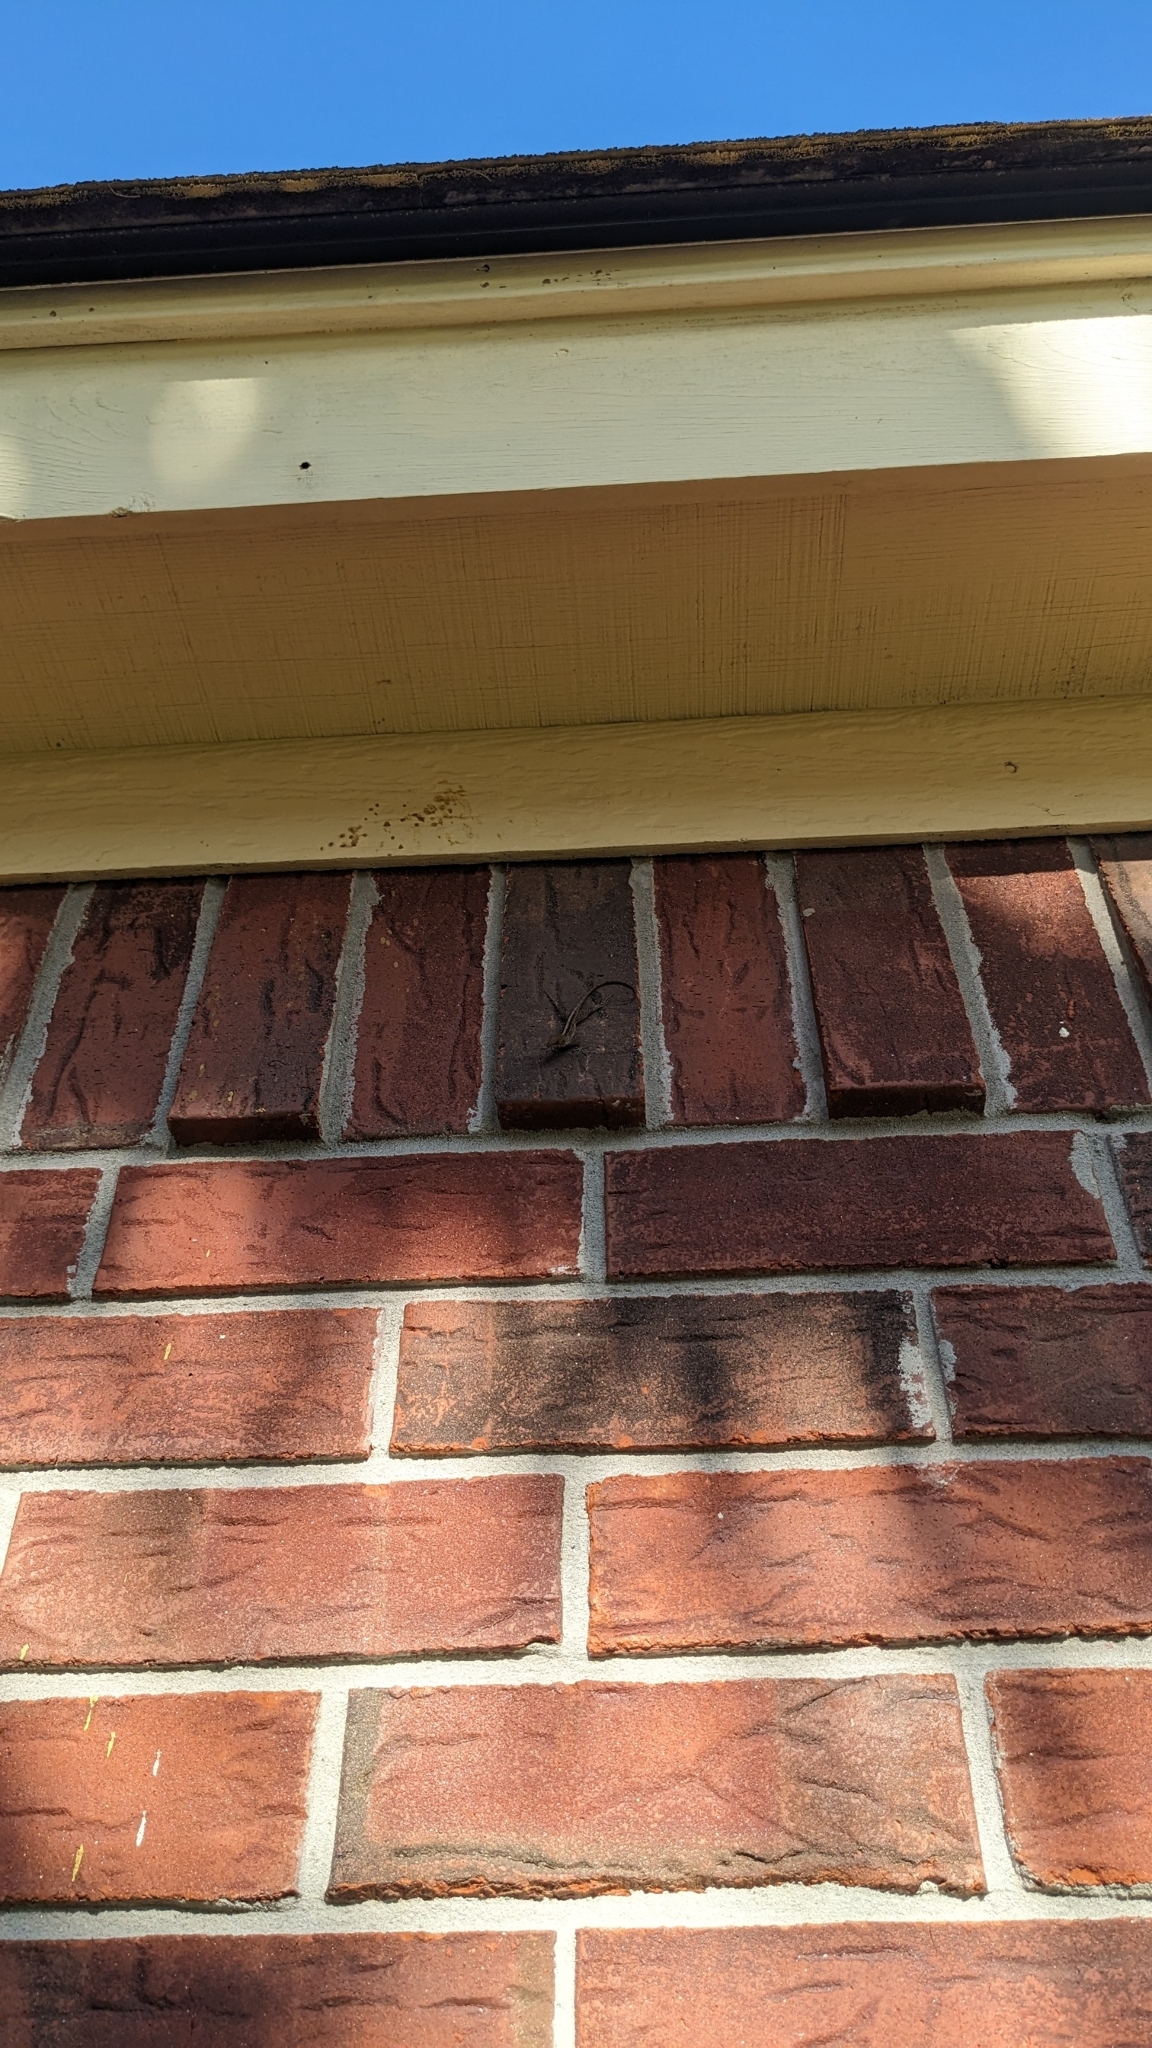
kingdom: Animalia
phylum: Chordata
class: Squamata
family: Dactyloidae
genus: Anolis
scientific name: Anolis sagrei
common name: Brown anole
